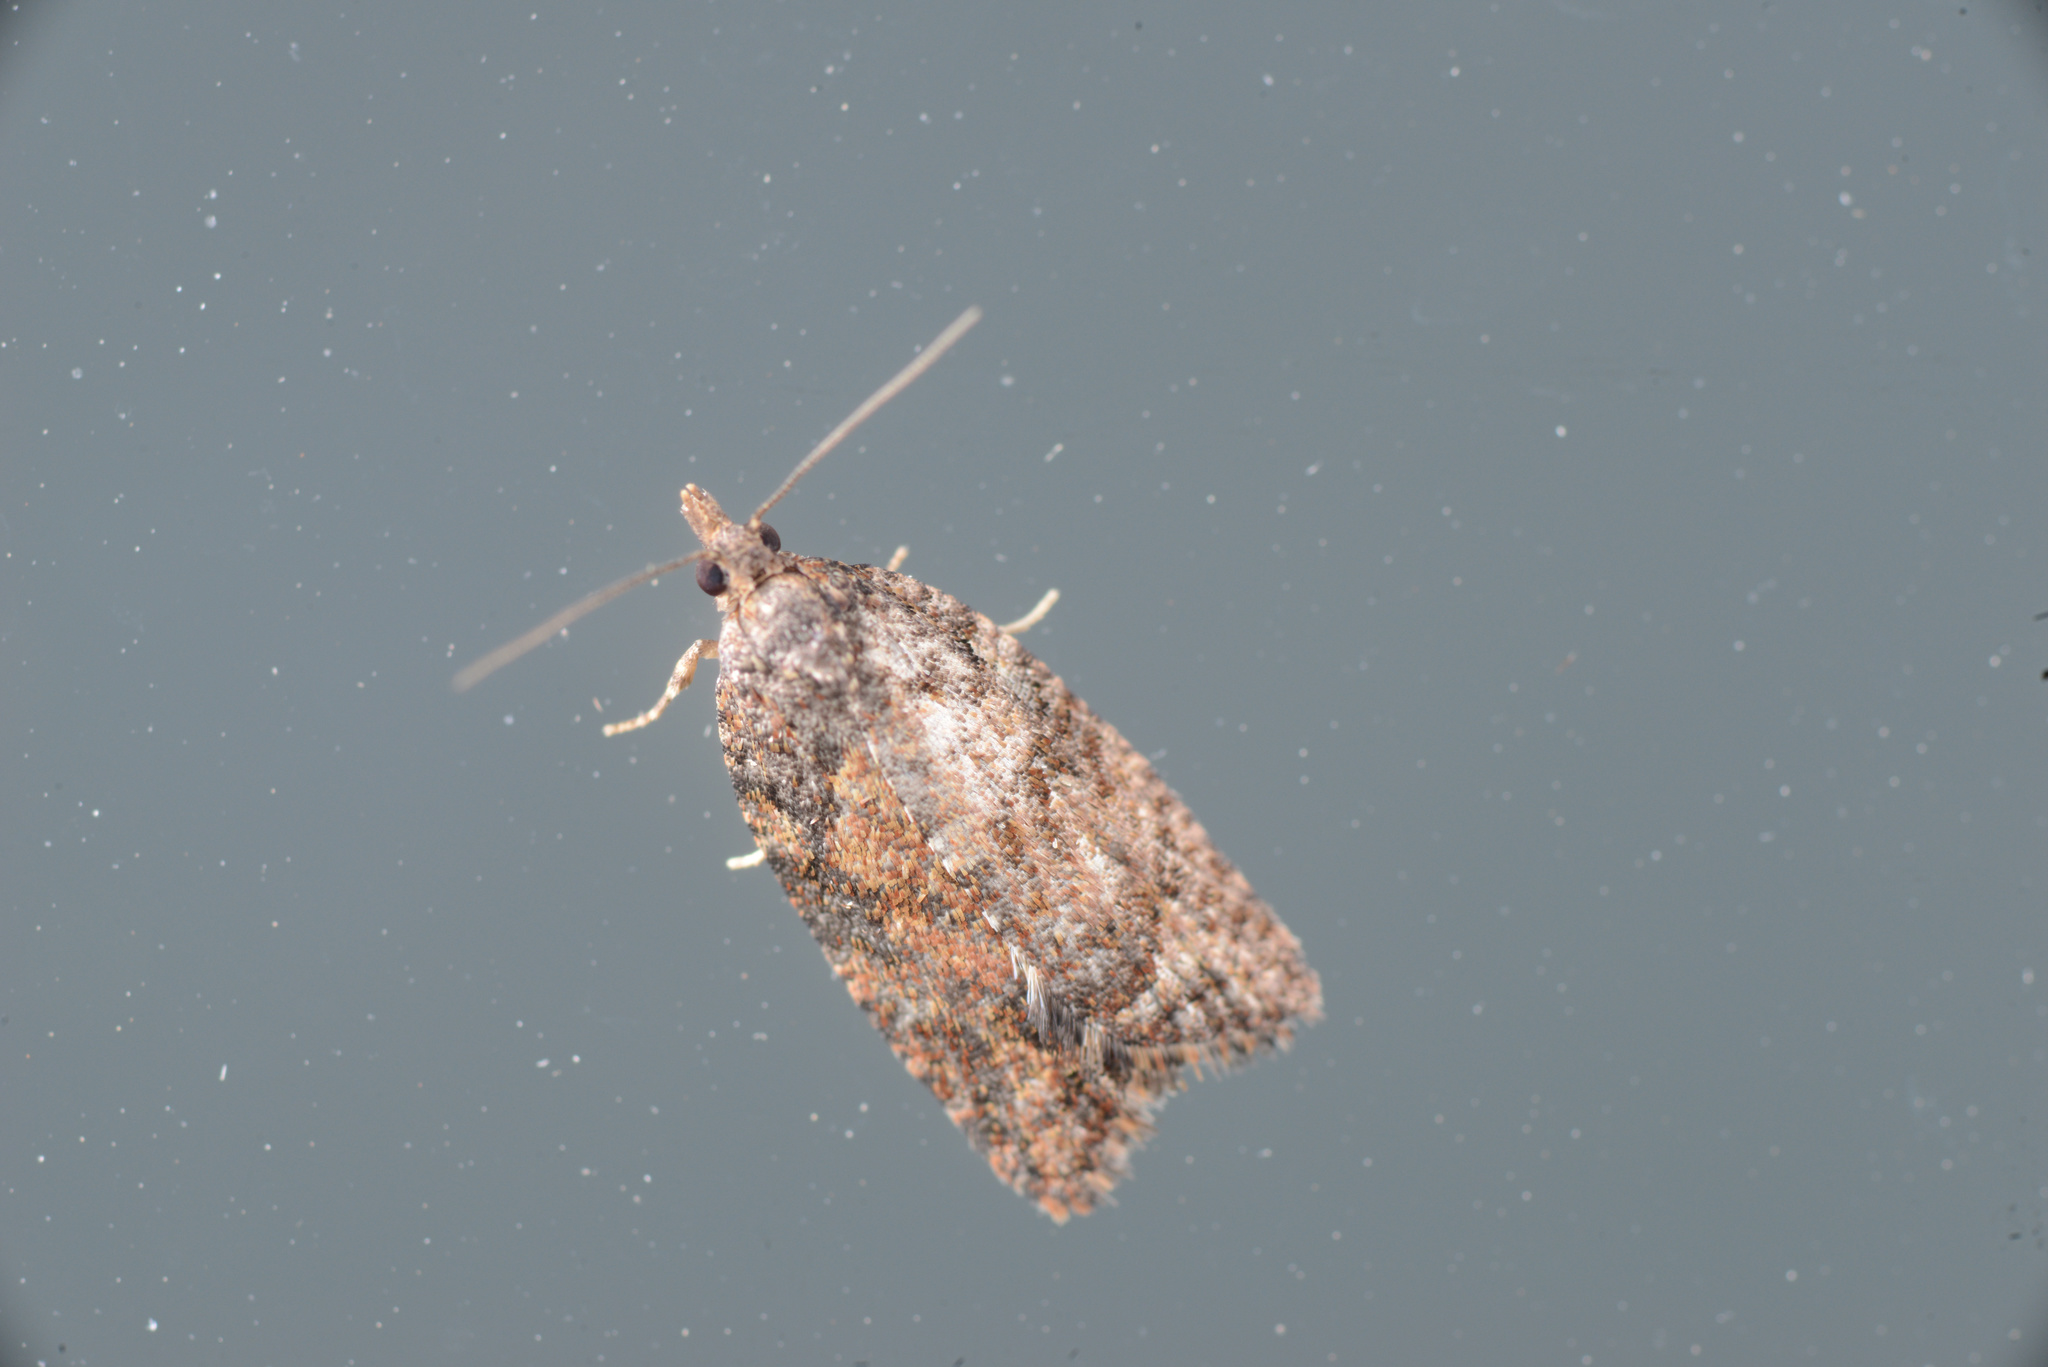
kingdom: Animalia
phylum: Arthropoda
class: Insecta
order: Lepidoptera
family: Tortricidae
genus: Capua
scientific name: Capua intractana
